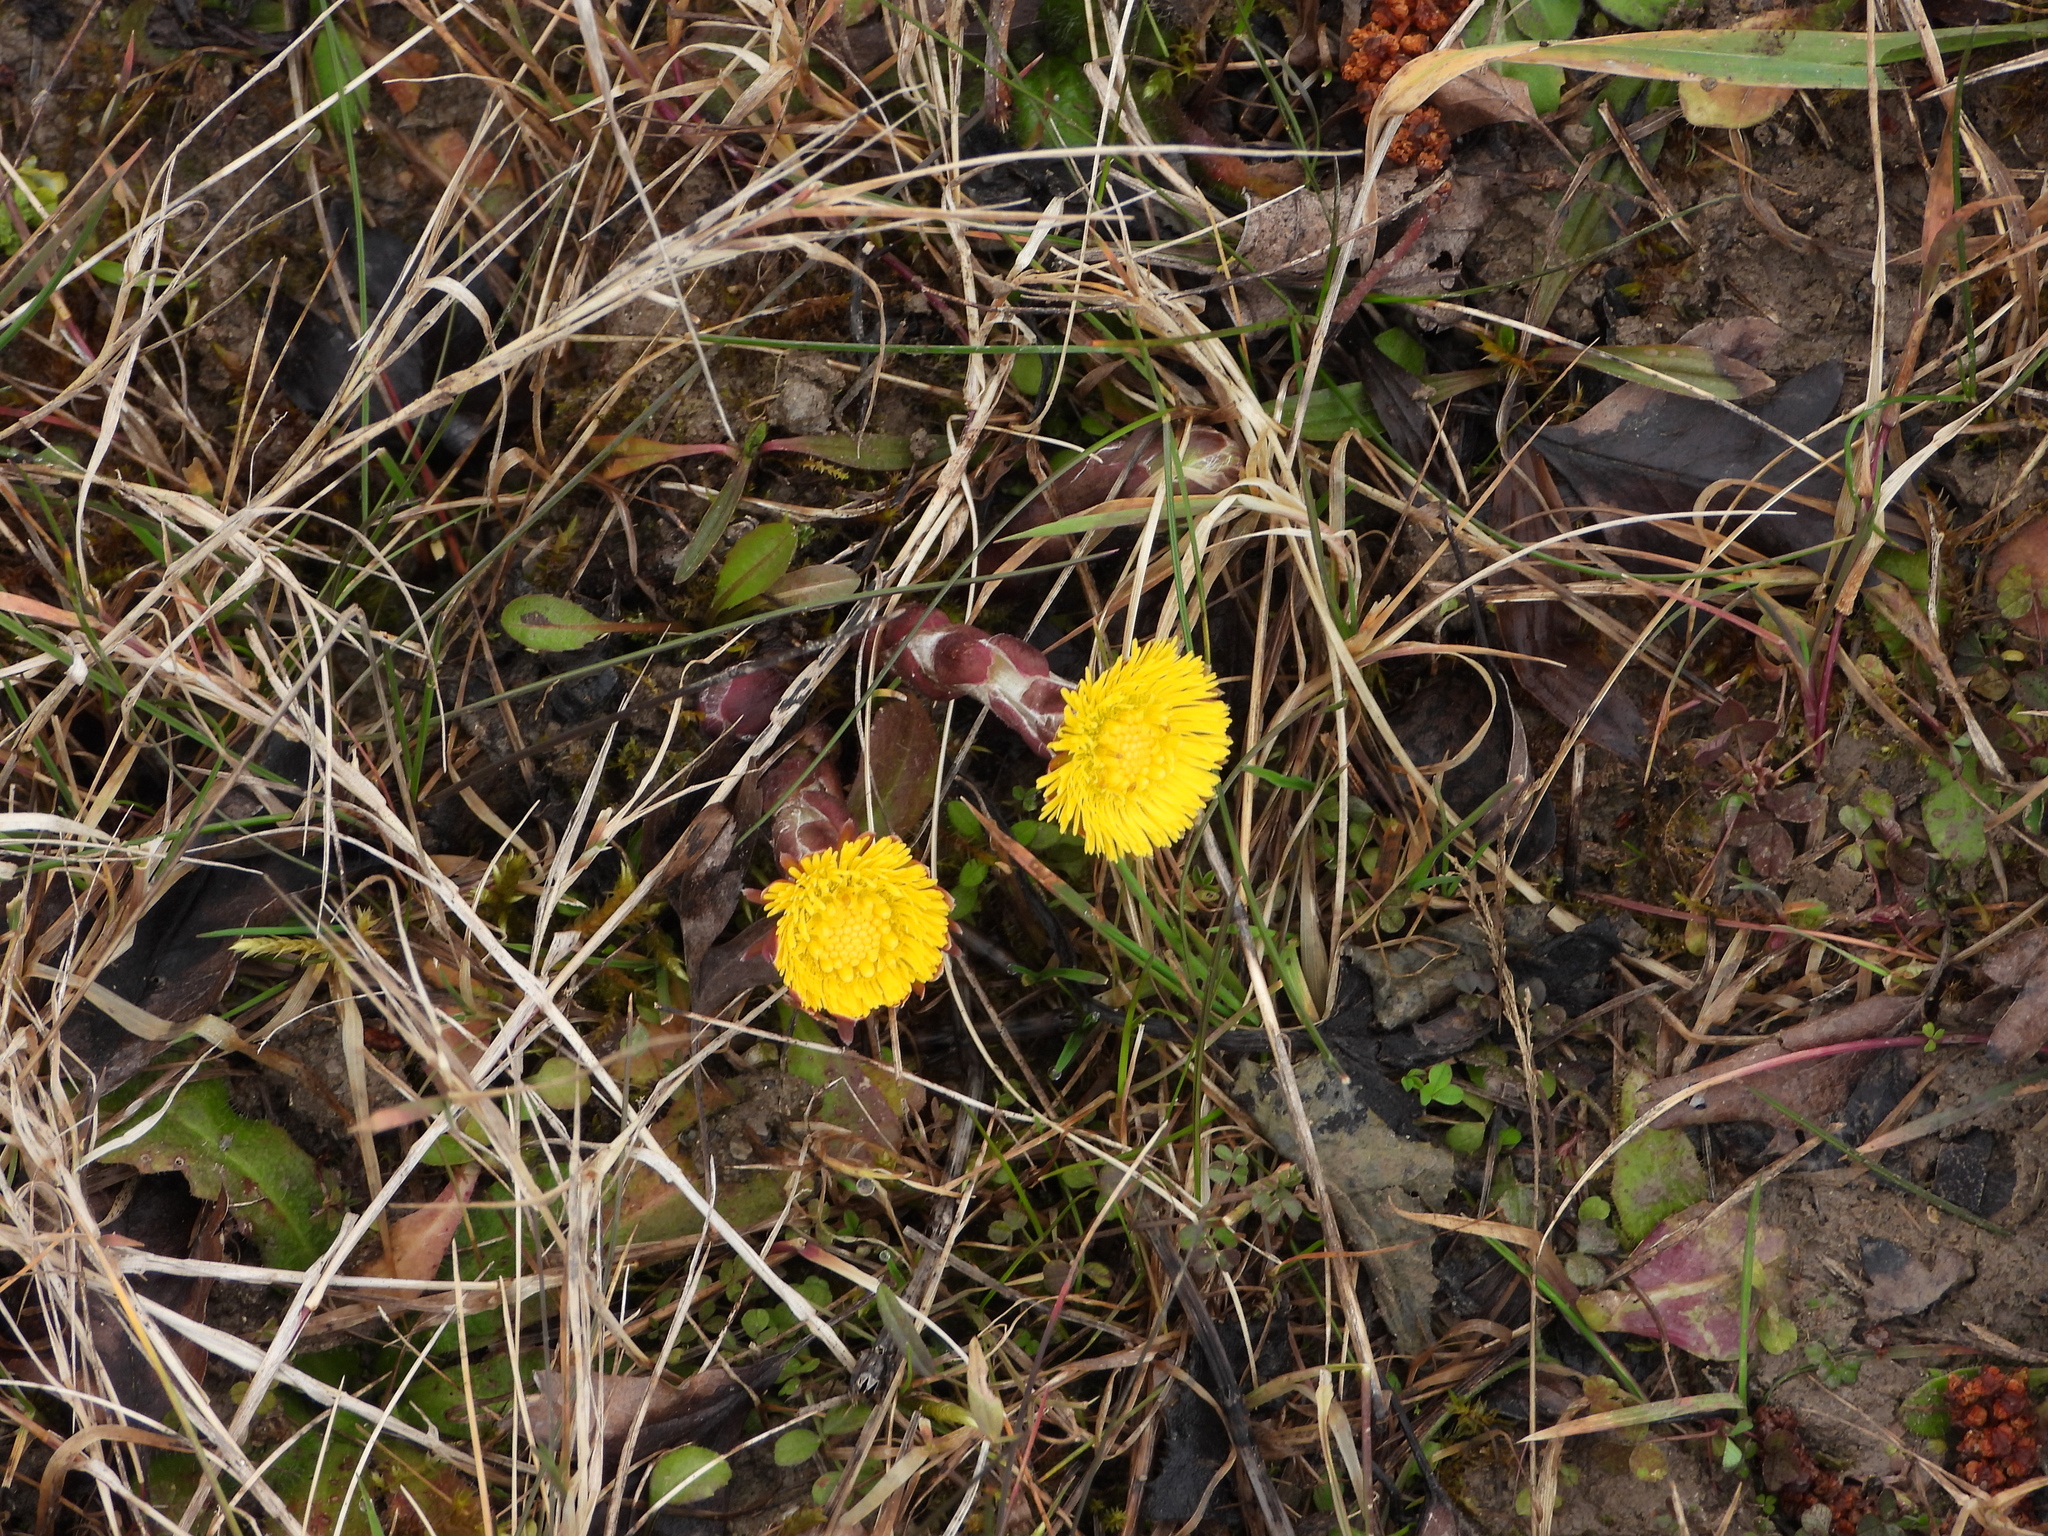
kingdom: Plantae
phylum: Tracheophyta
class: Magnoliopsida
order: Asterales
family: Asteraceae
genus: Tussilago
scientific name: Tussilago farfara
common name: Coltsfoot
